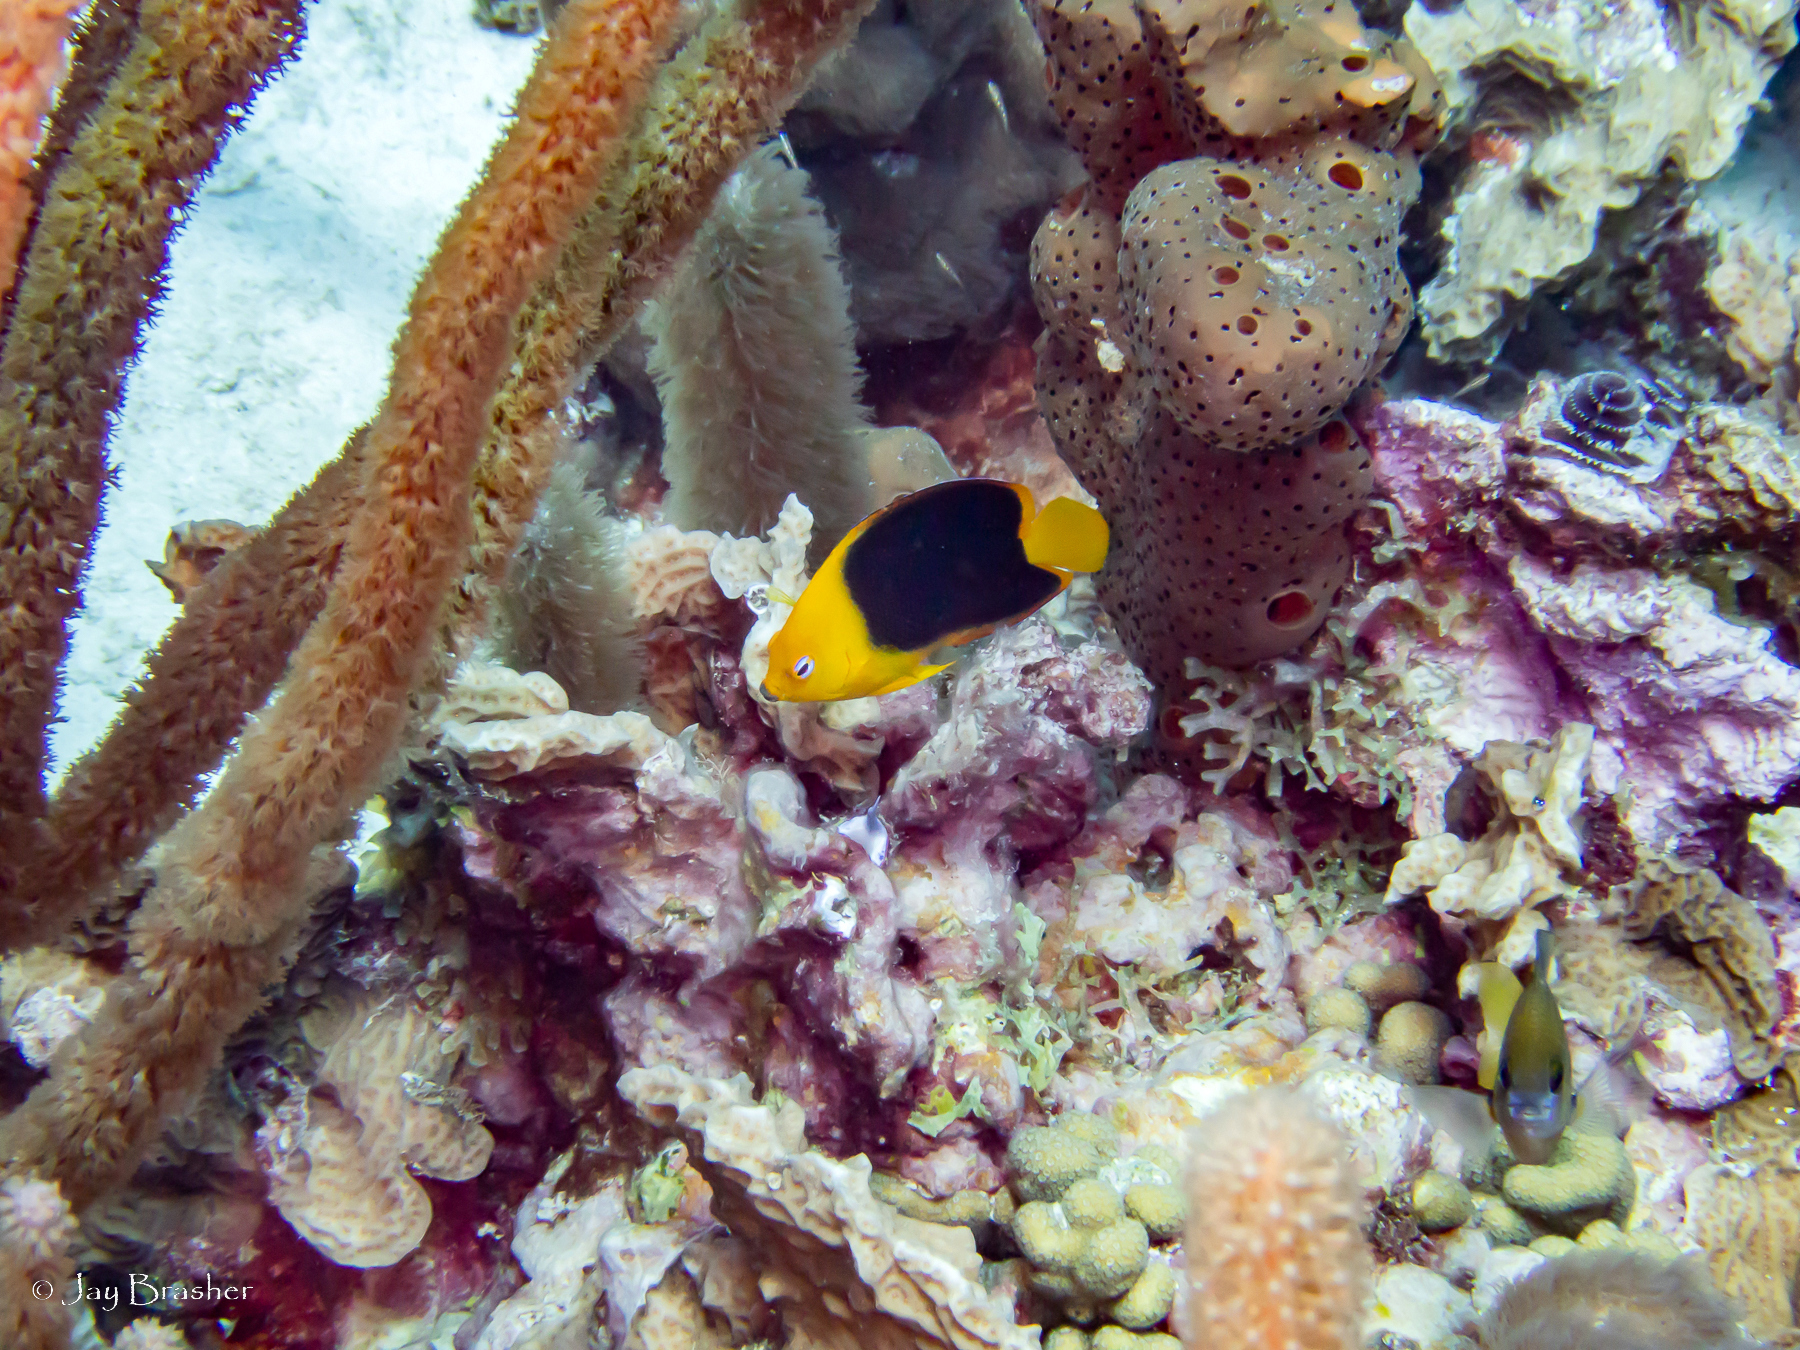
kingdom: Animalia
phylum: Chordata
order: Perciformes
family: Pomacanthidae
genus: Holacanthus
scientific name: Holacanthus tricolor
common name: Rock beauty
